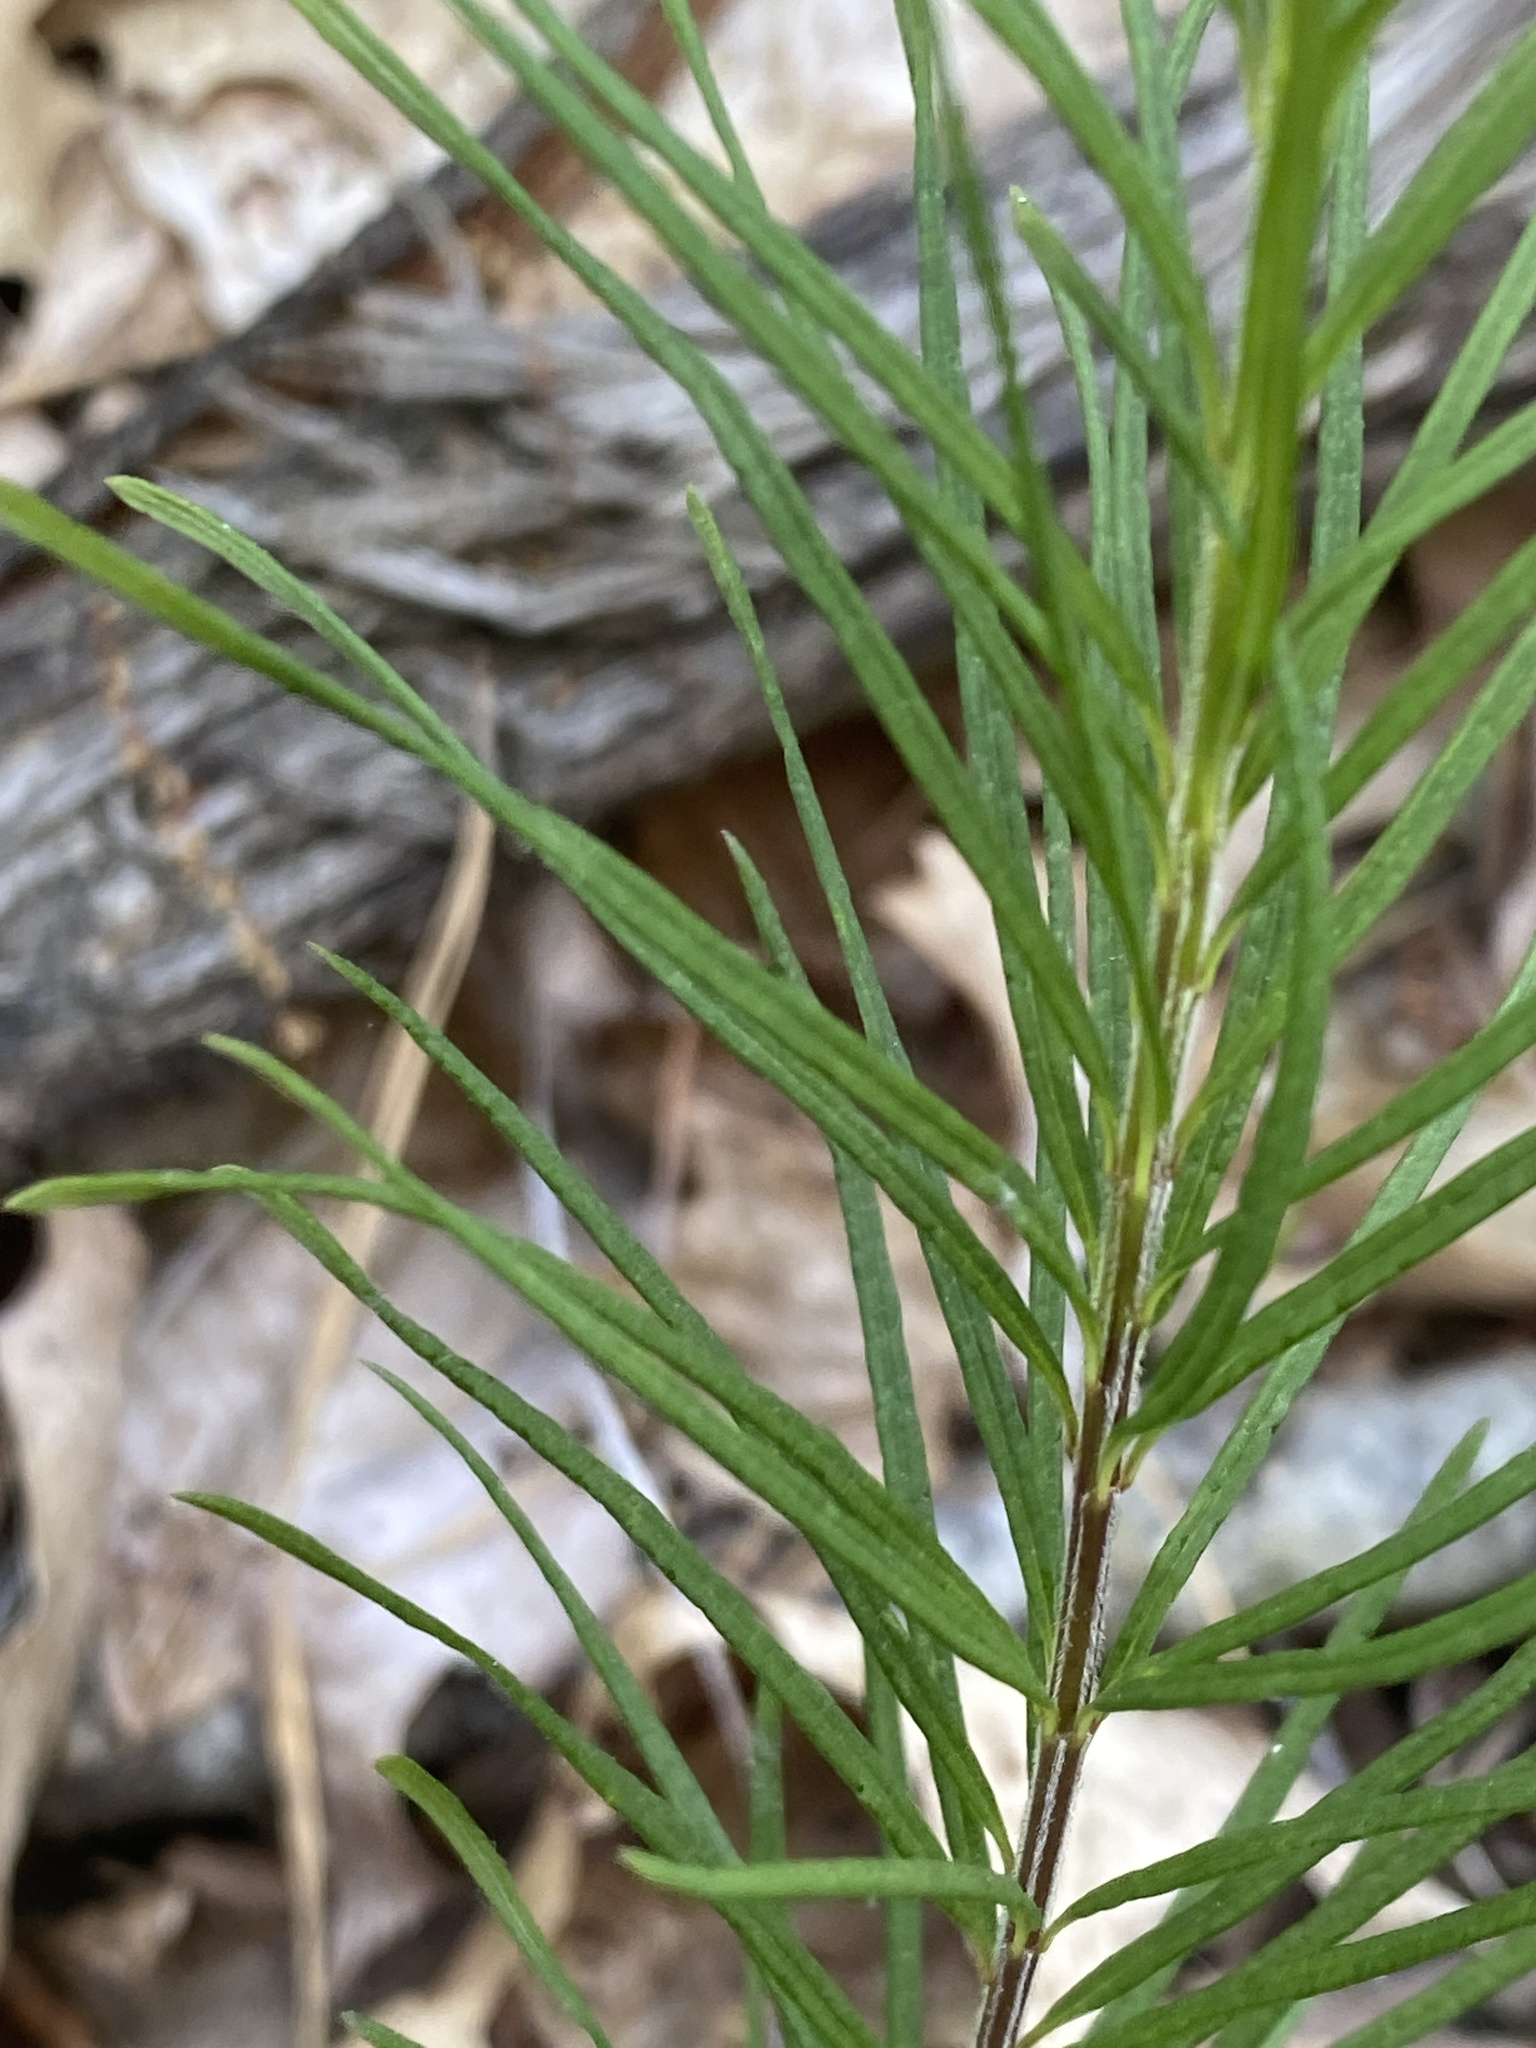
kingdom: Plantae
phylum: Tracheophyta
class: Magnoliopsida
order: Gentianales
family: Apocynaceae
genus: Asclepias
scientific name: Asclepias verticillata
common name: Eastern whorled milkweed
